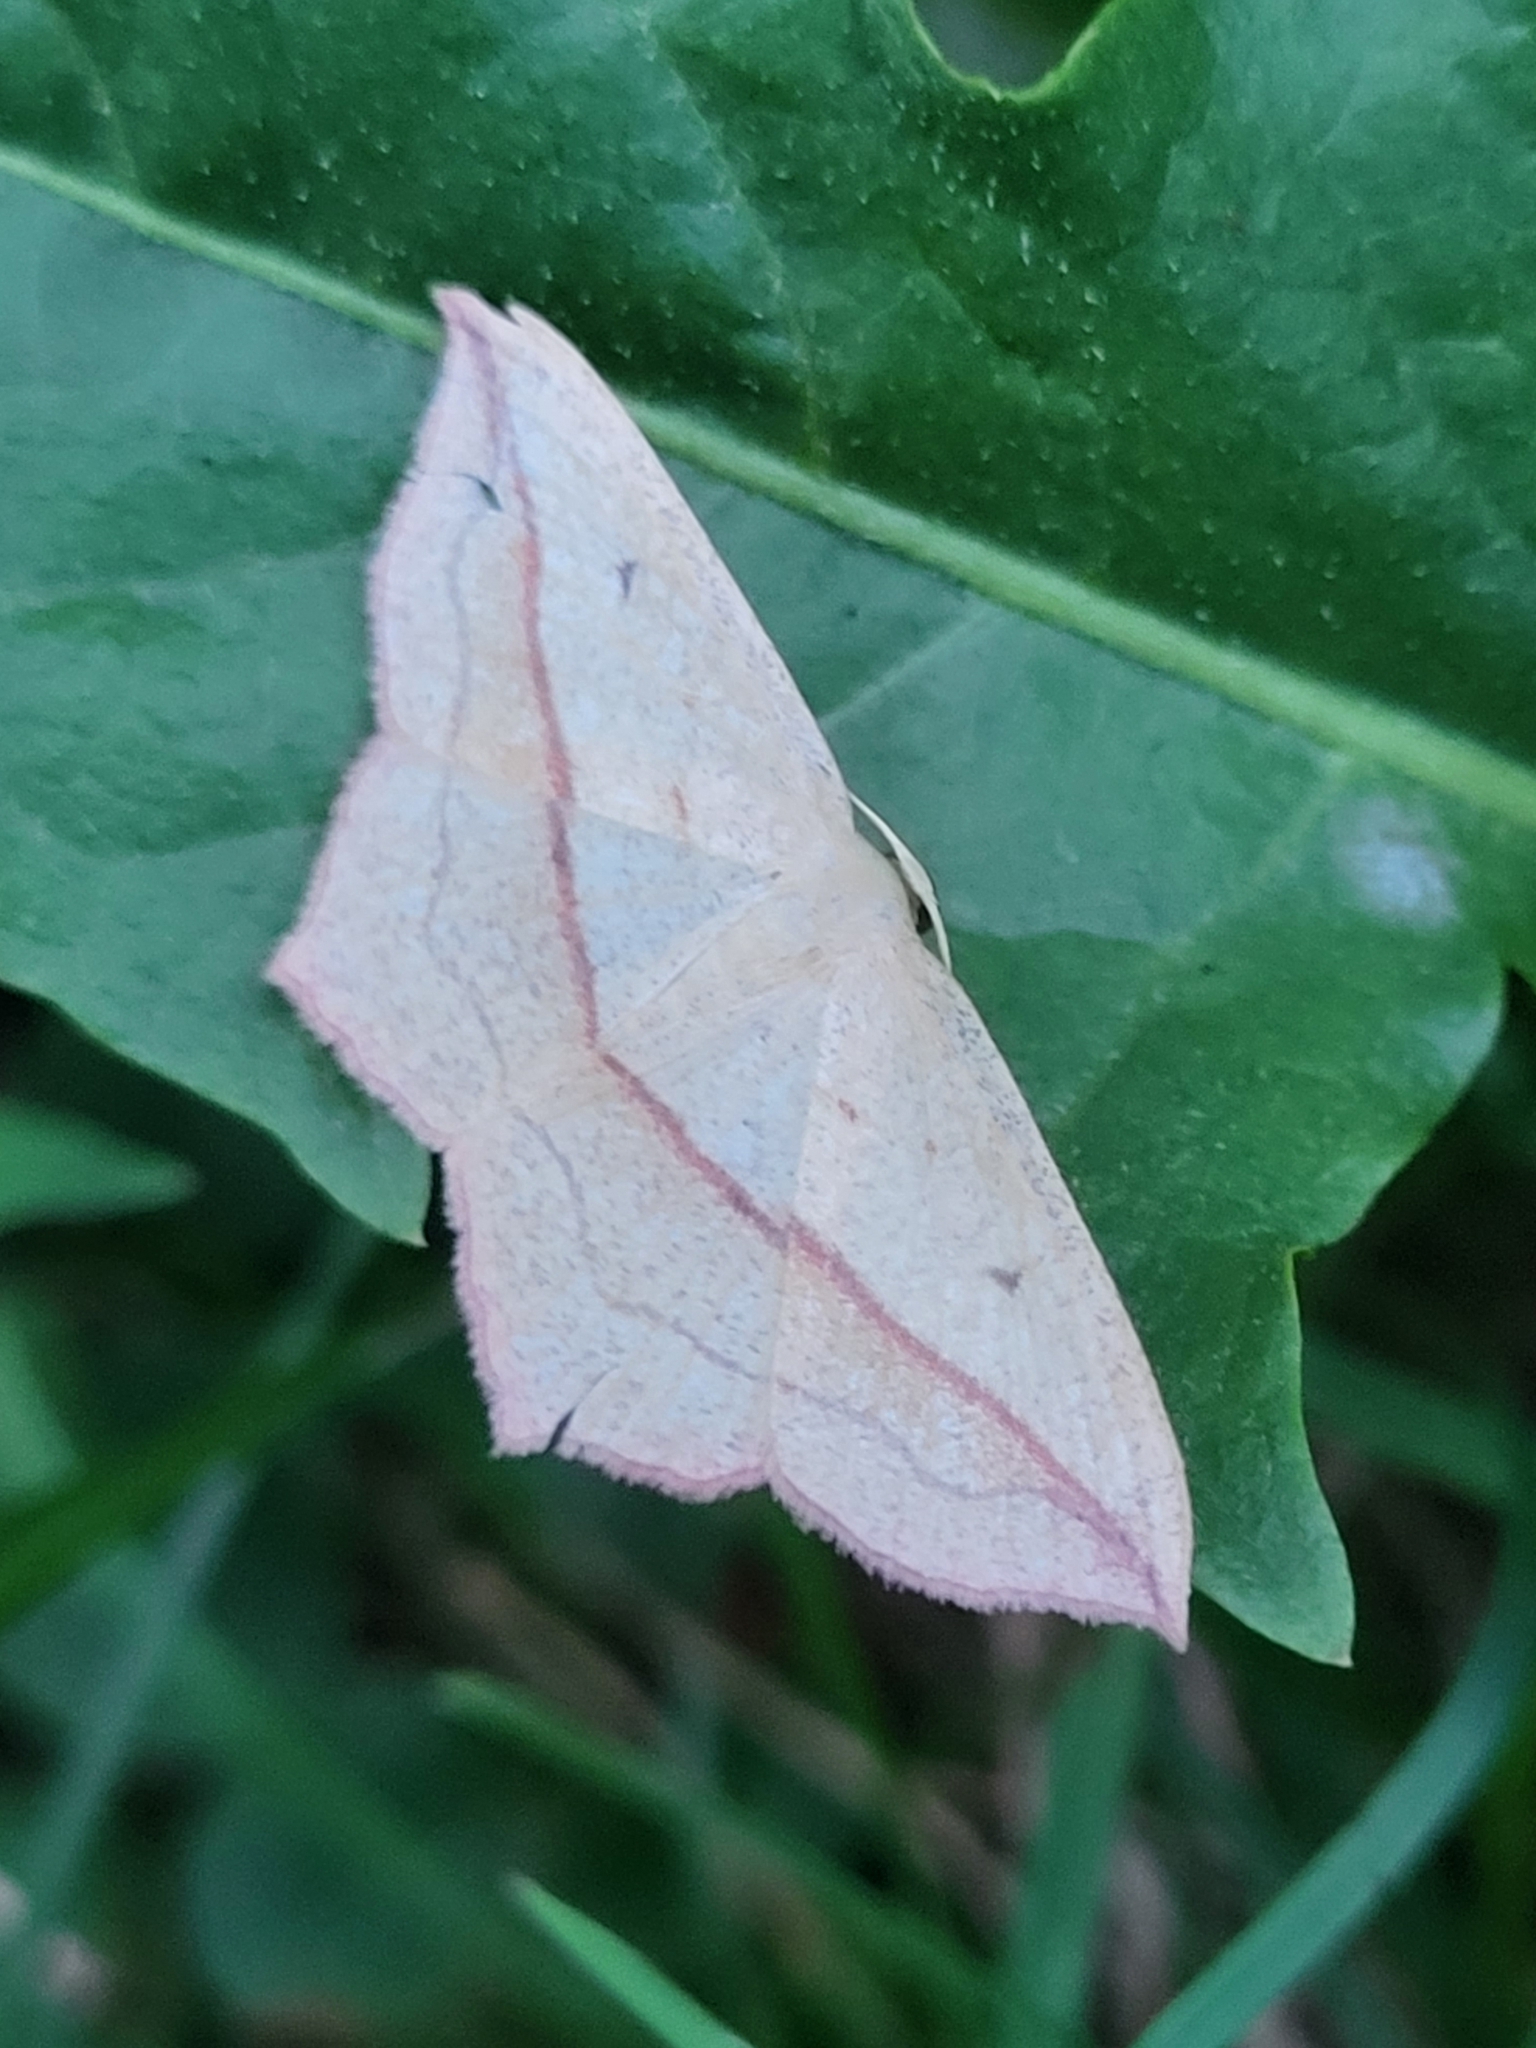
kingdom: Animalia
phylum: Arthropoda
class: Insecta
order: Lepidoptera
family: Geometridae
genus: Timandra
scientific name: Timandra comae
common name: Blood-vein
